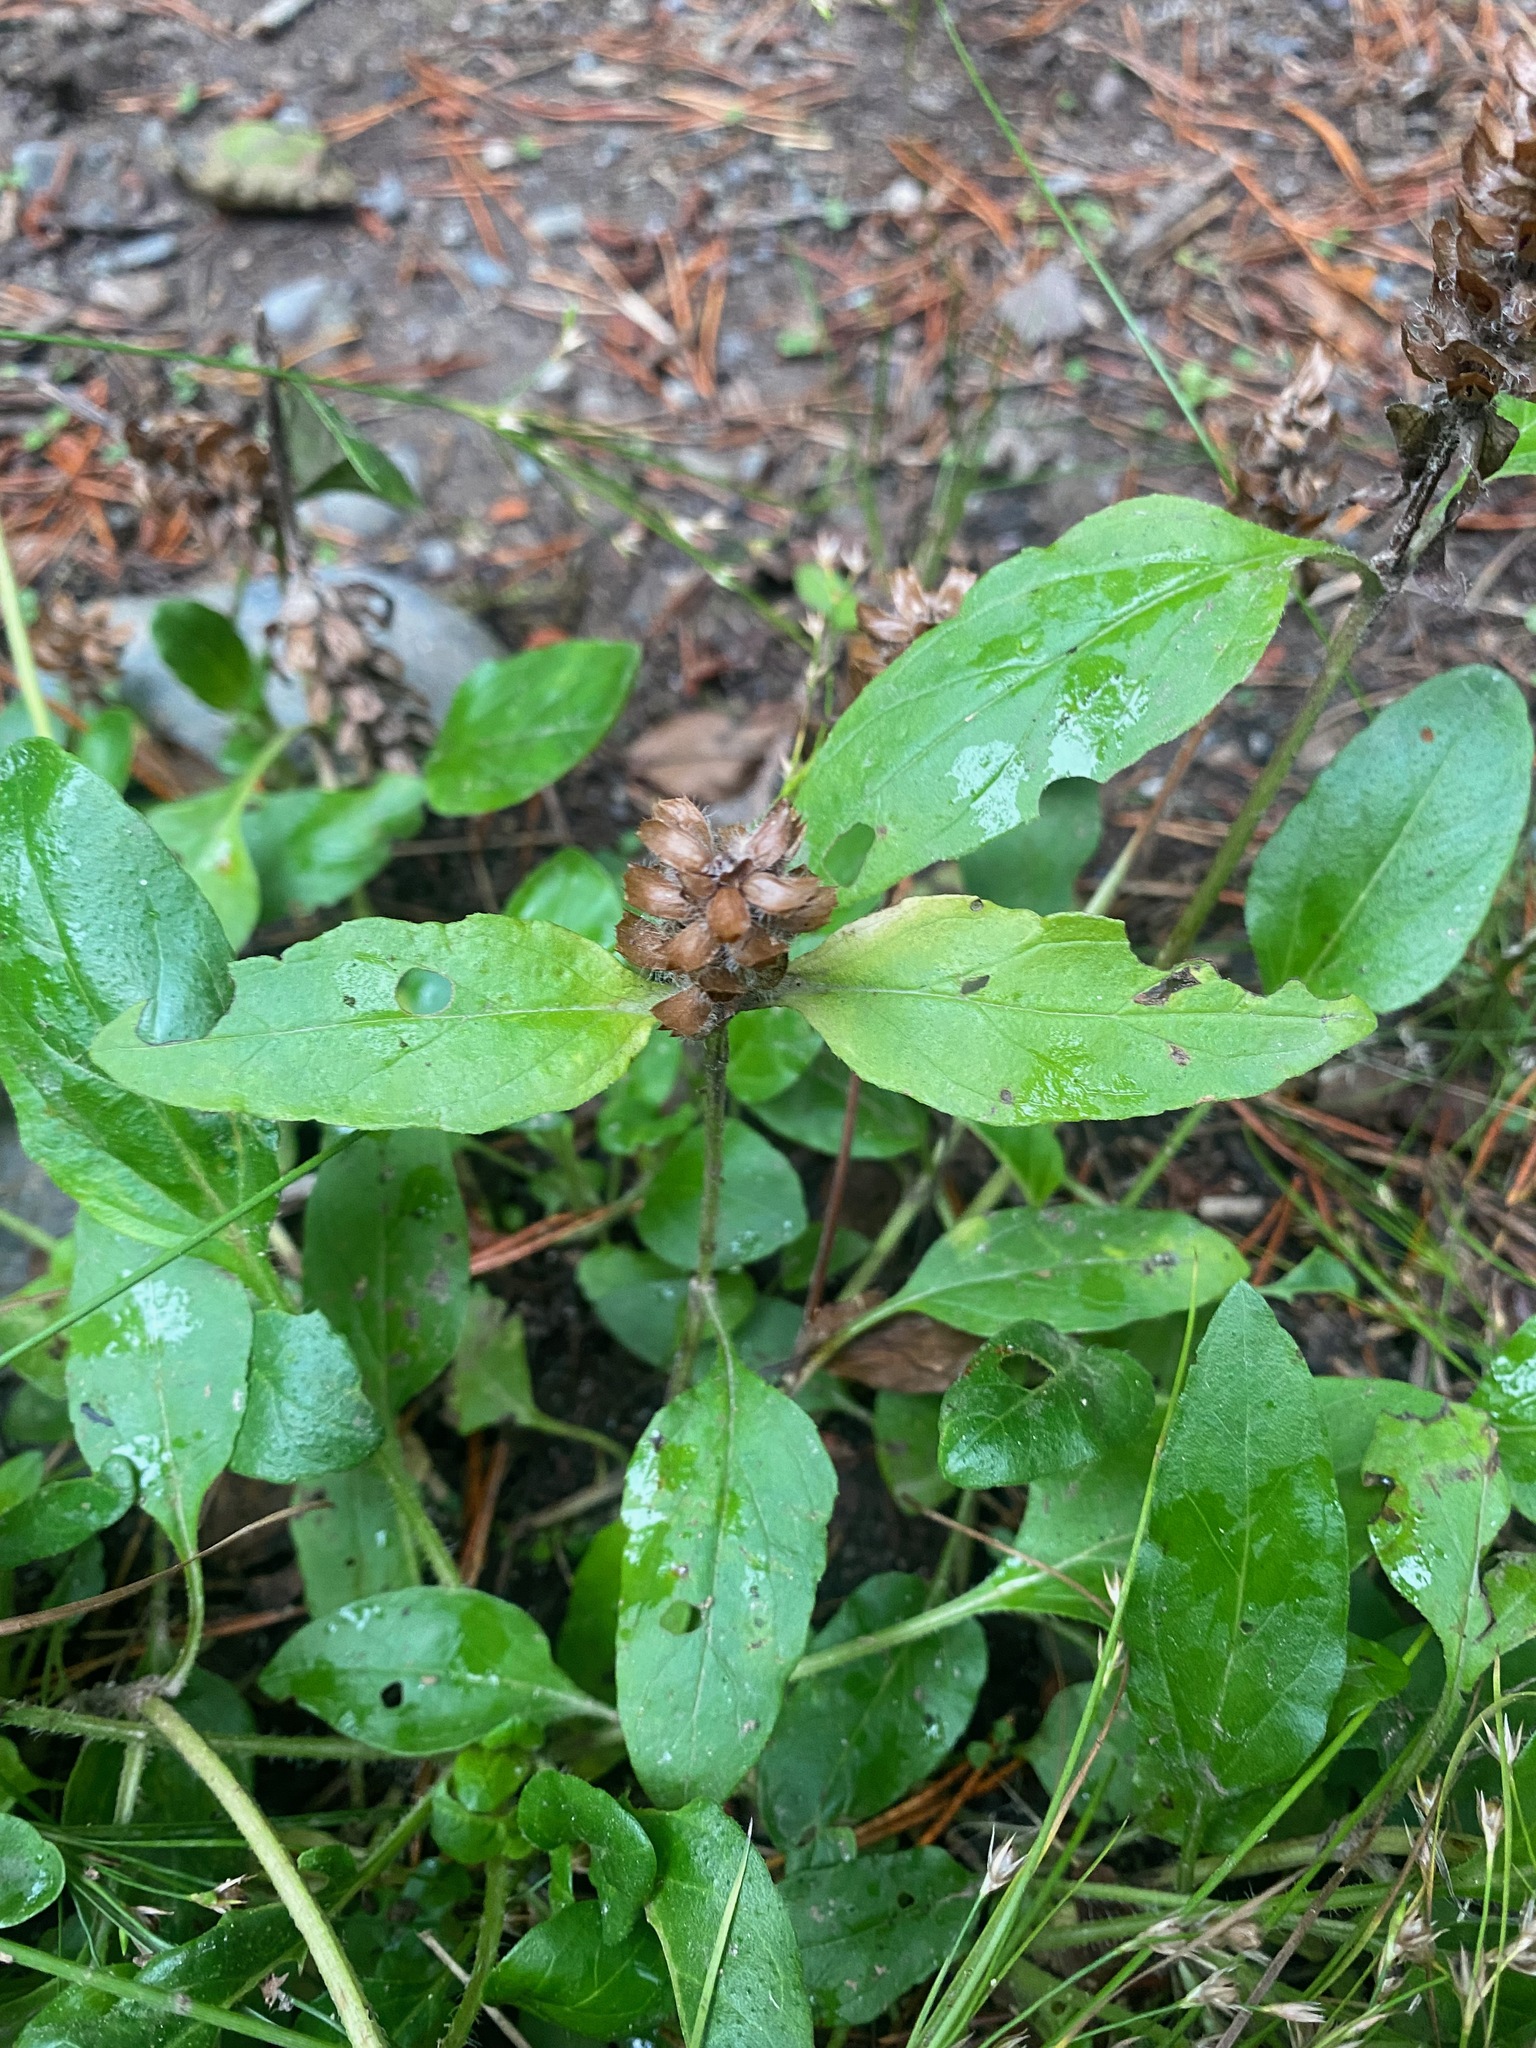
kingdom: Plantae
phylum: Tracheophyta
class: Magnoliopsida
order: Lamiales
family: Lamiaceae
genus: Prunella
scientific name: Prunella vulgaris
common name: Heal-all
